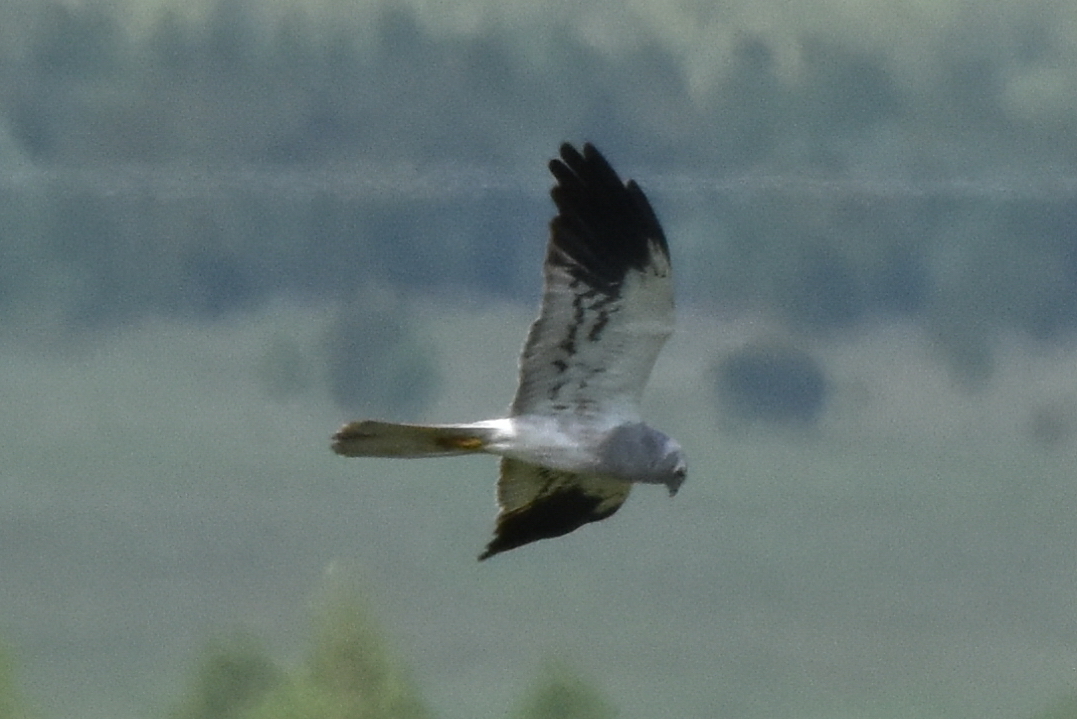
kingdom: Animalia
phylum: Chordata
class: Aves
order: Accipitriformes
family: Accipitridae
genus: Circus
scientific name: Circus pygargus
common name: Montagu's harrier
